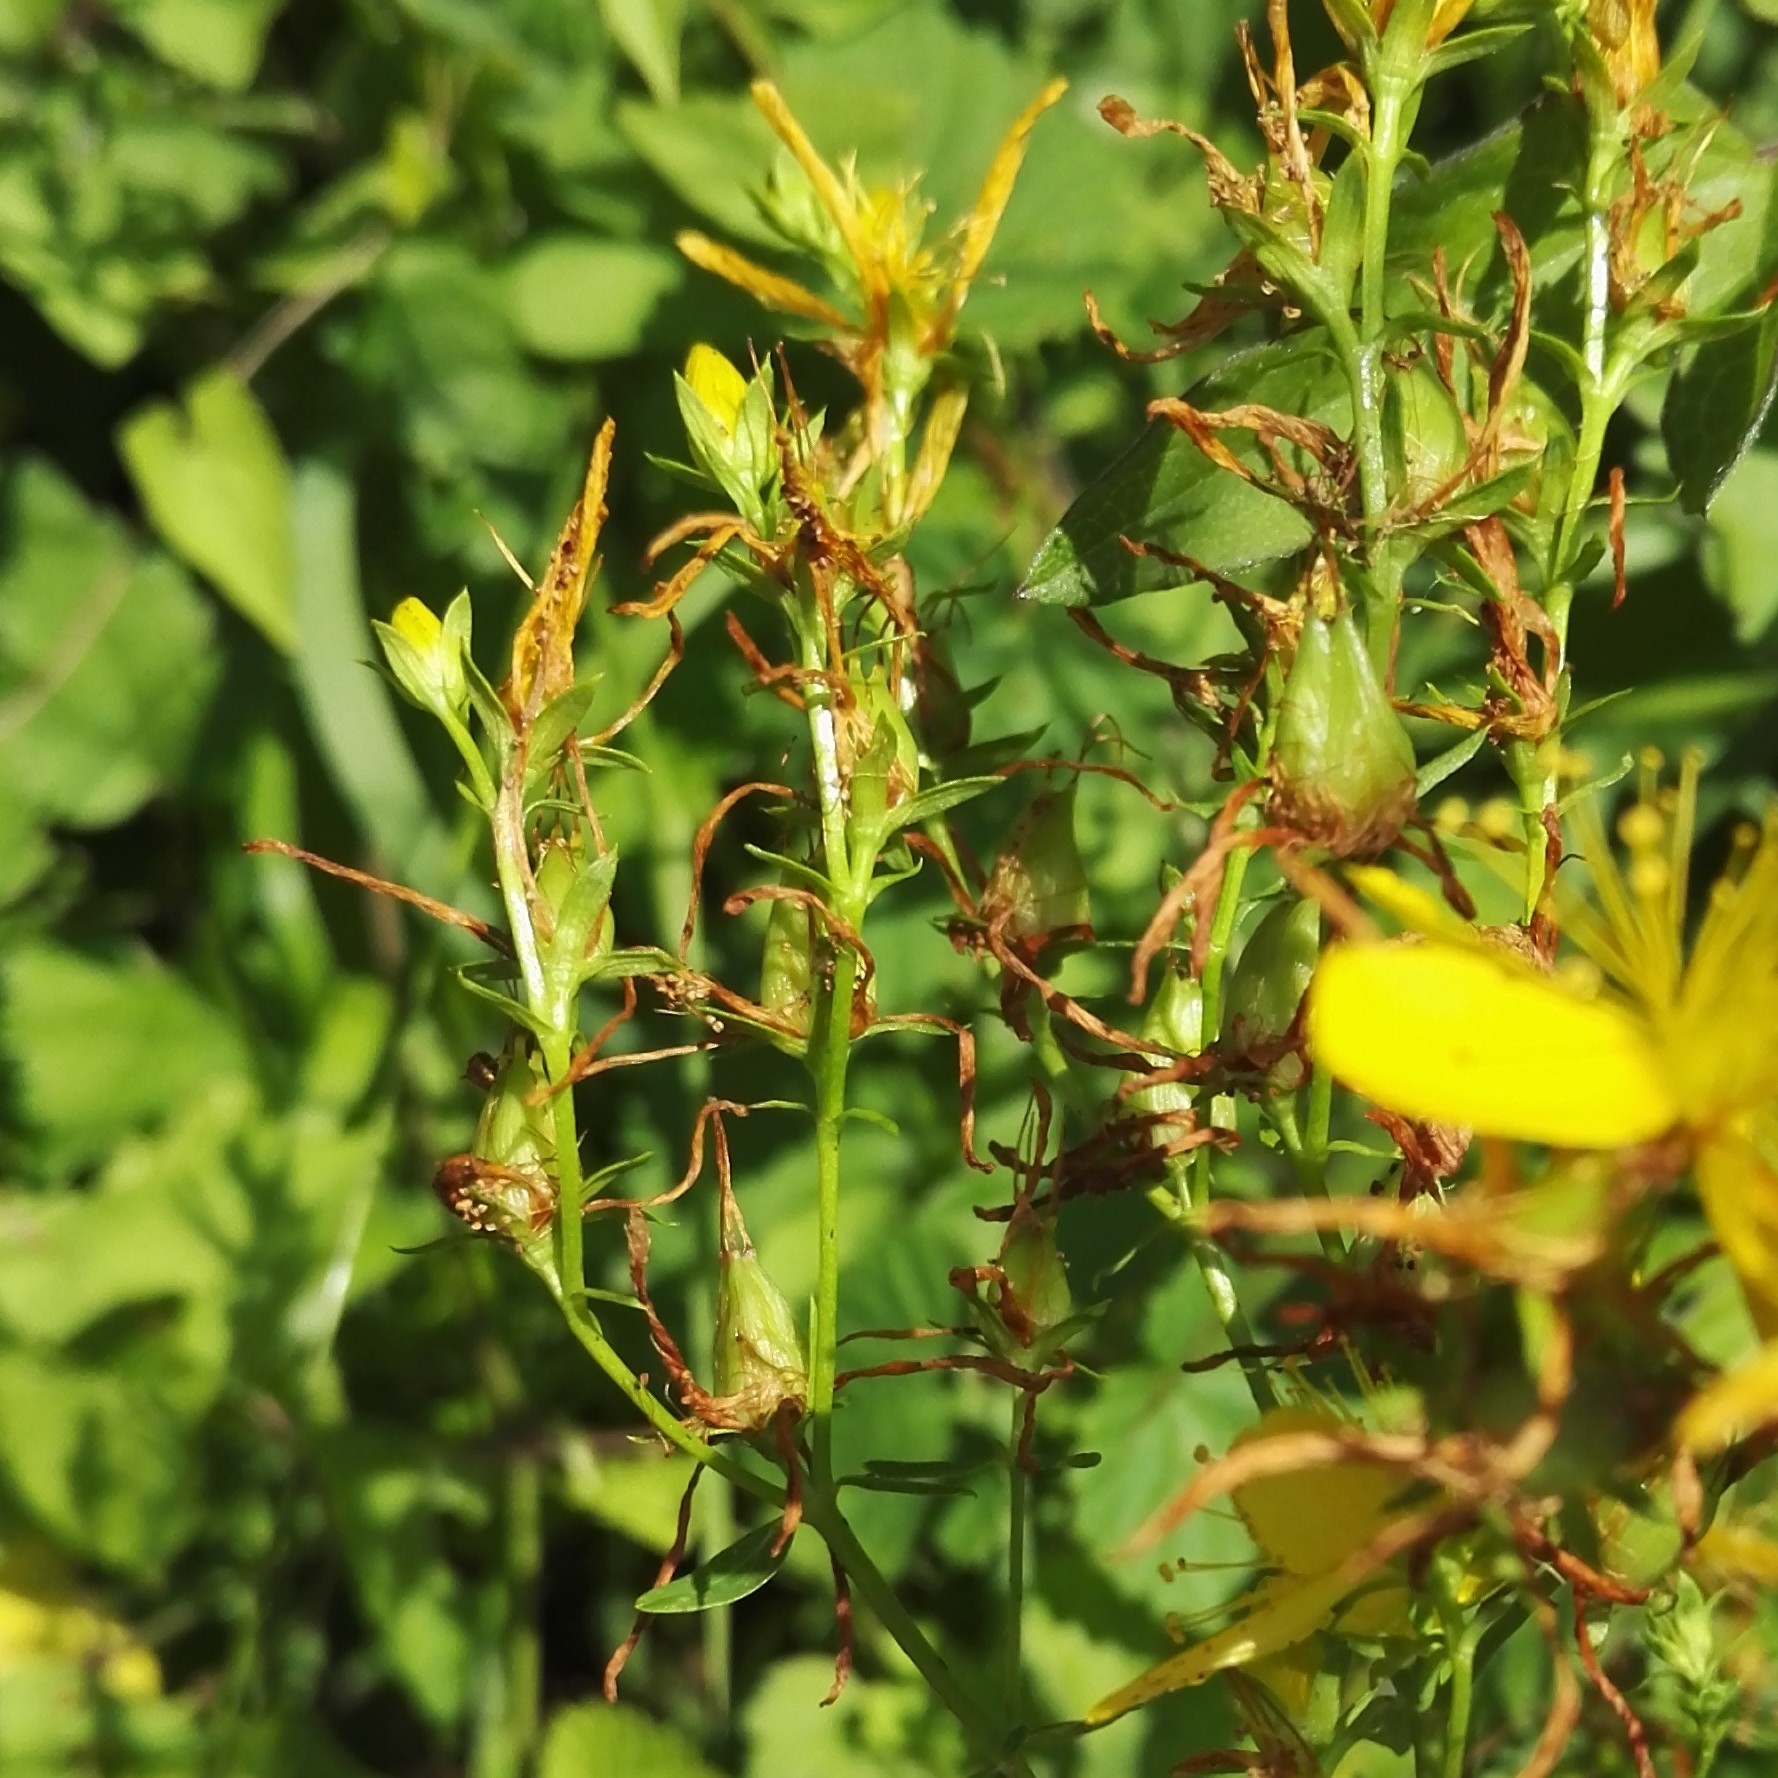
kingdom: Plantae
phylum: Tracheophyta
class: Magnoliopsida
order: Malpighiales
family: Hypericaceae
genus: Hypericum
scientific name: Hypericum perforatum
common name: Common st. johnswort
